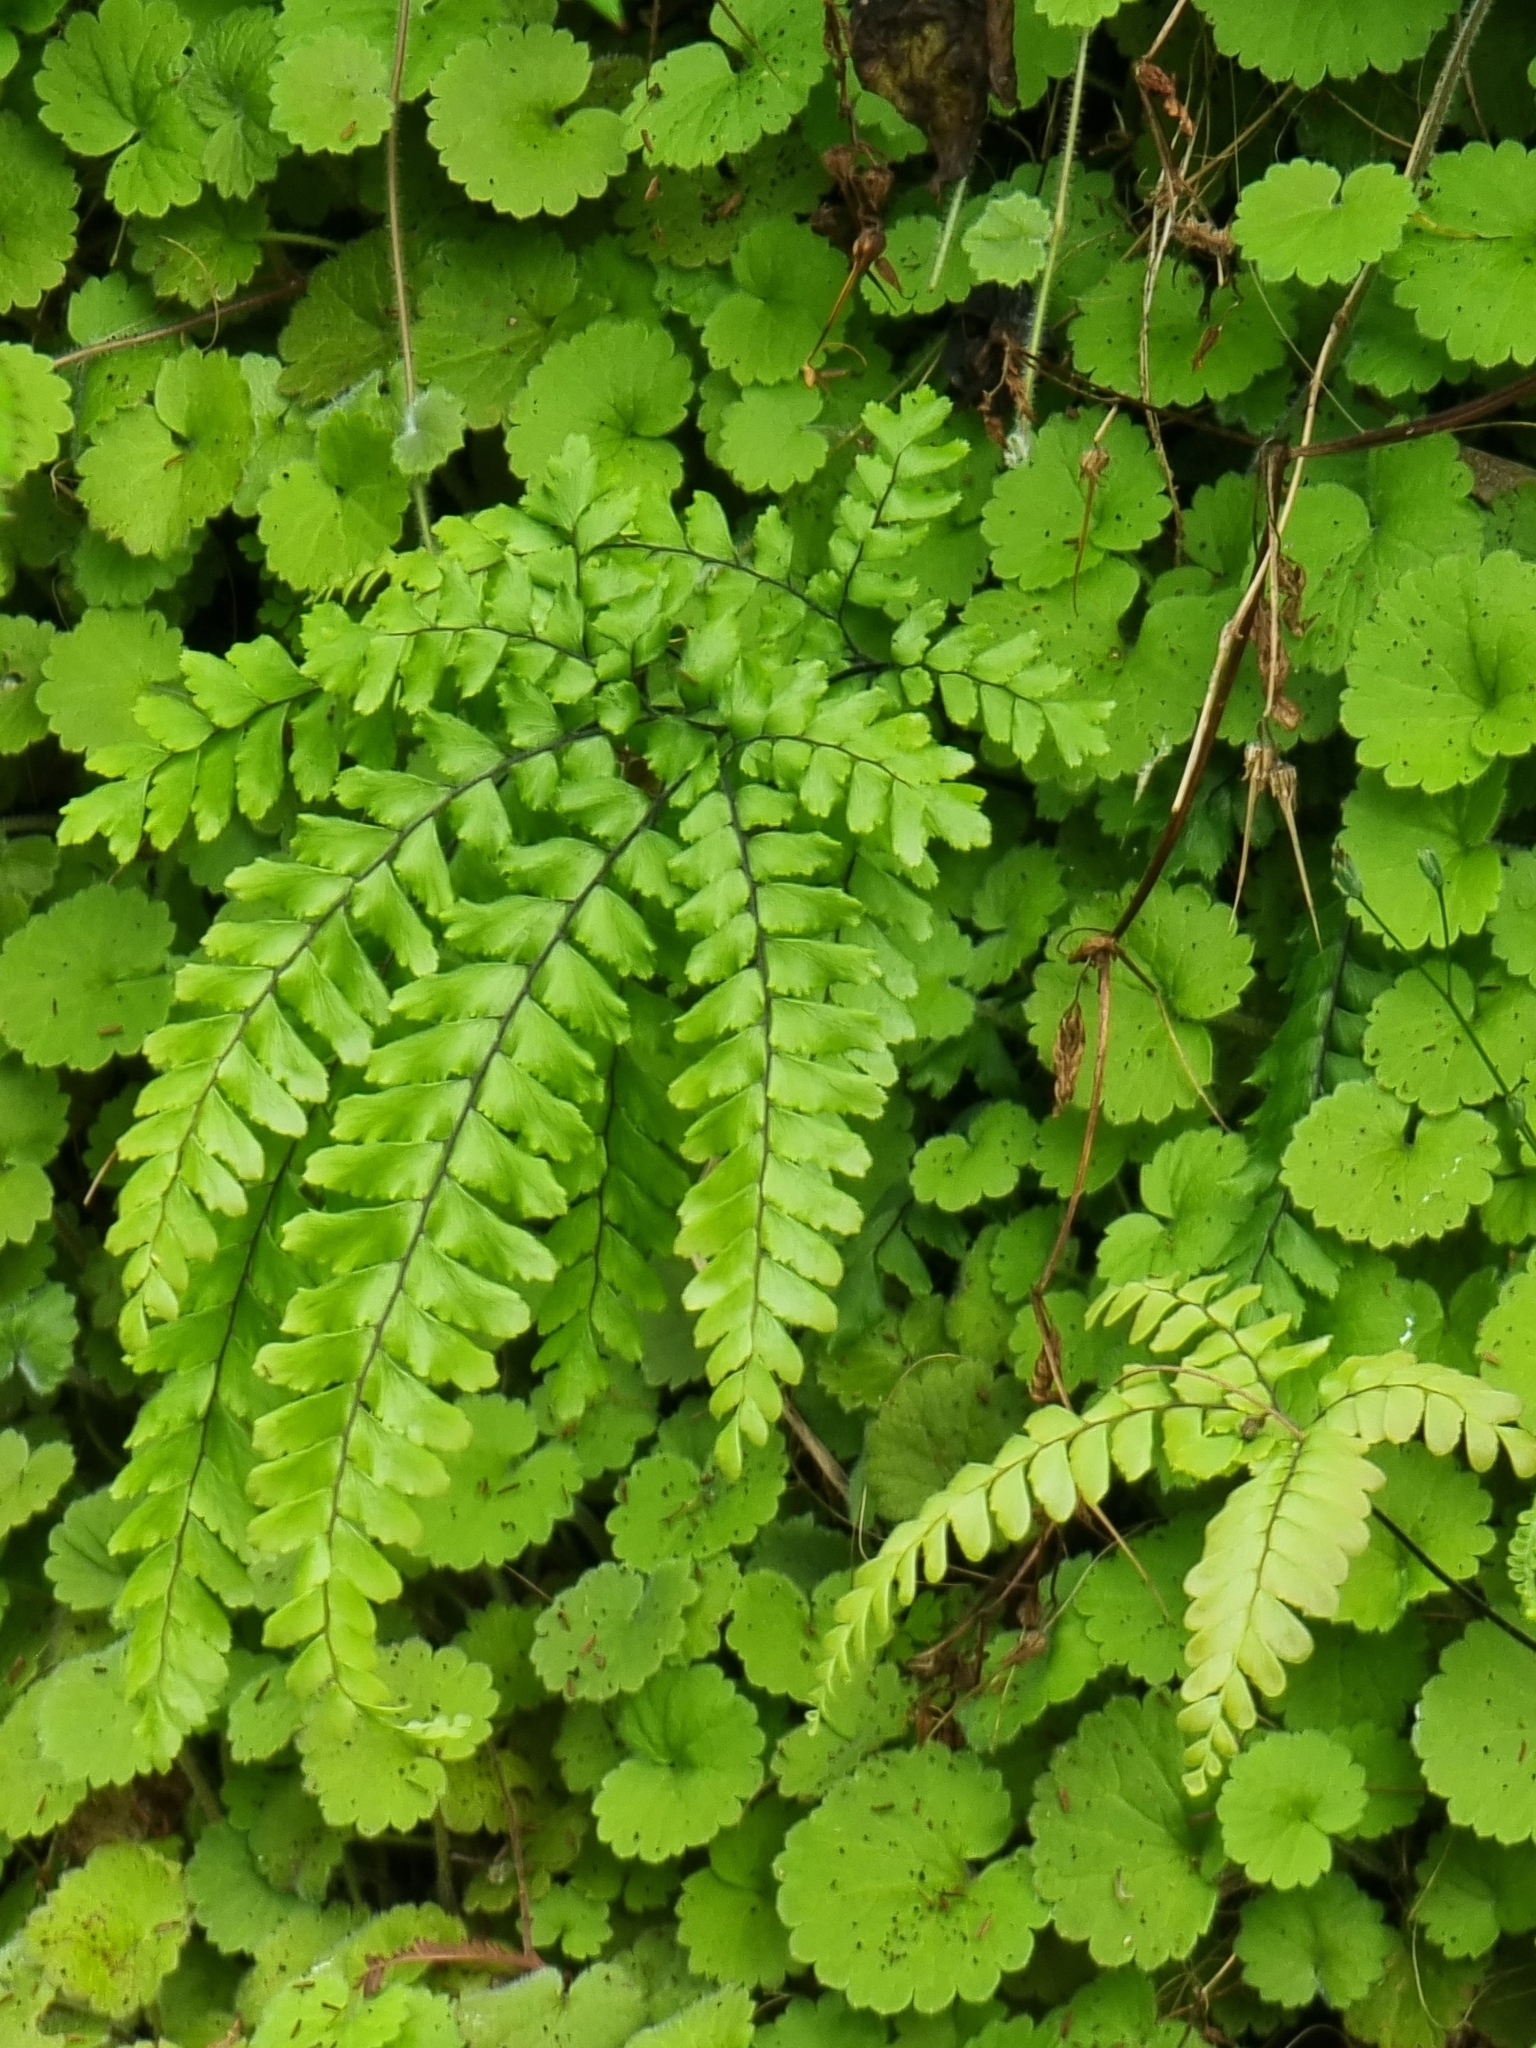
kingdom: Plantae
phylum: Tracheophyta
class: Polypodiopsida
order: Polypodiales
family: Pteridaceae
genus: Adiantum
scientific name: Adiantum hispidulum
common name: Rough maidenhair
